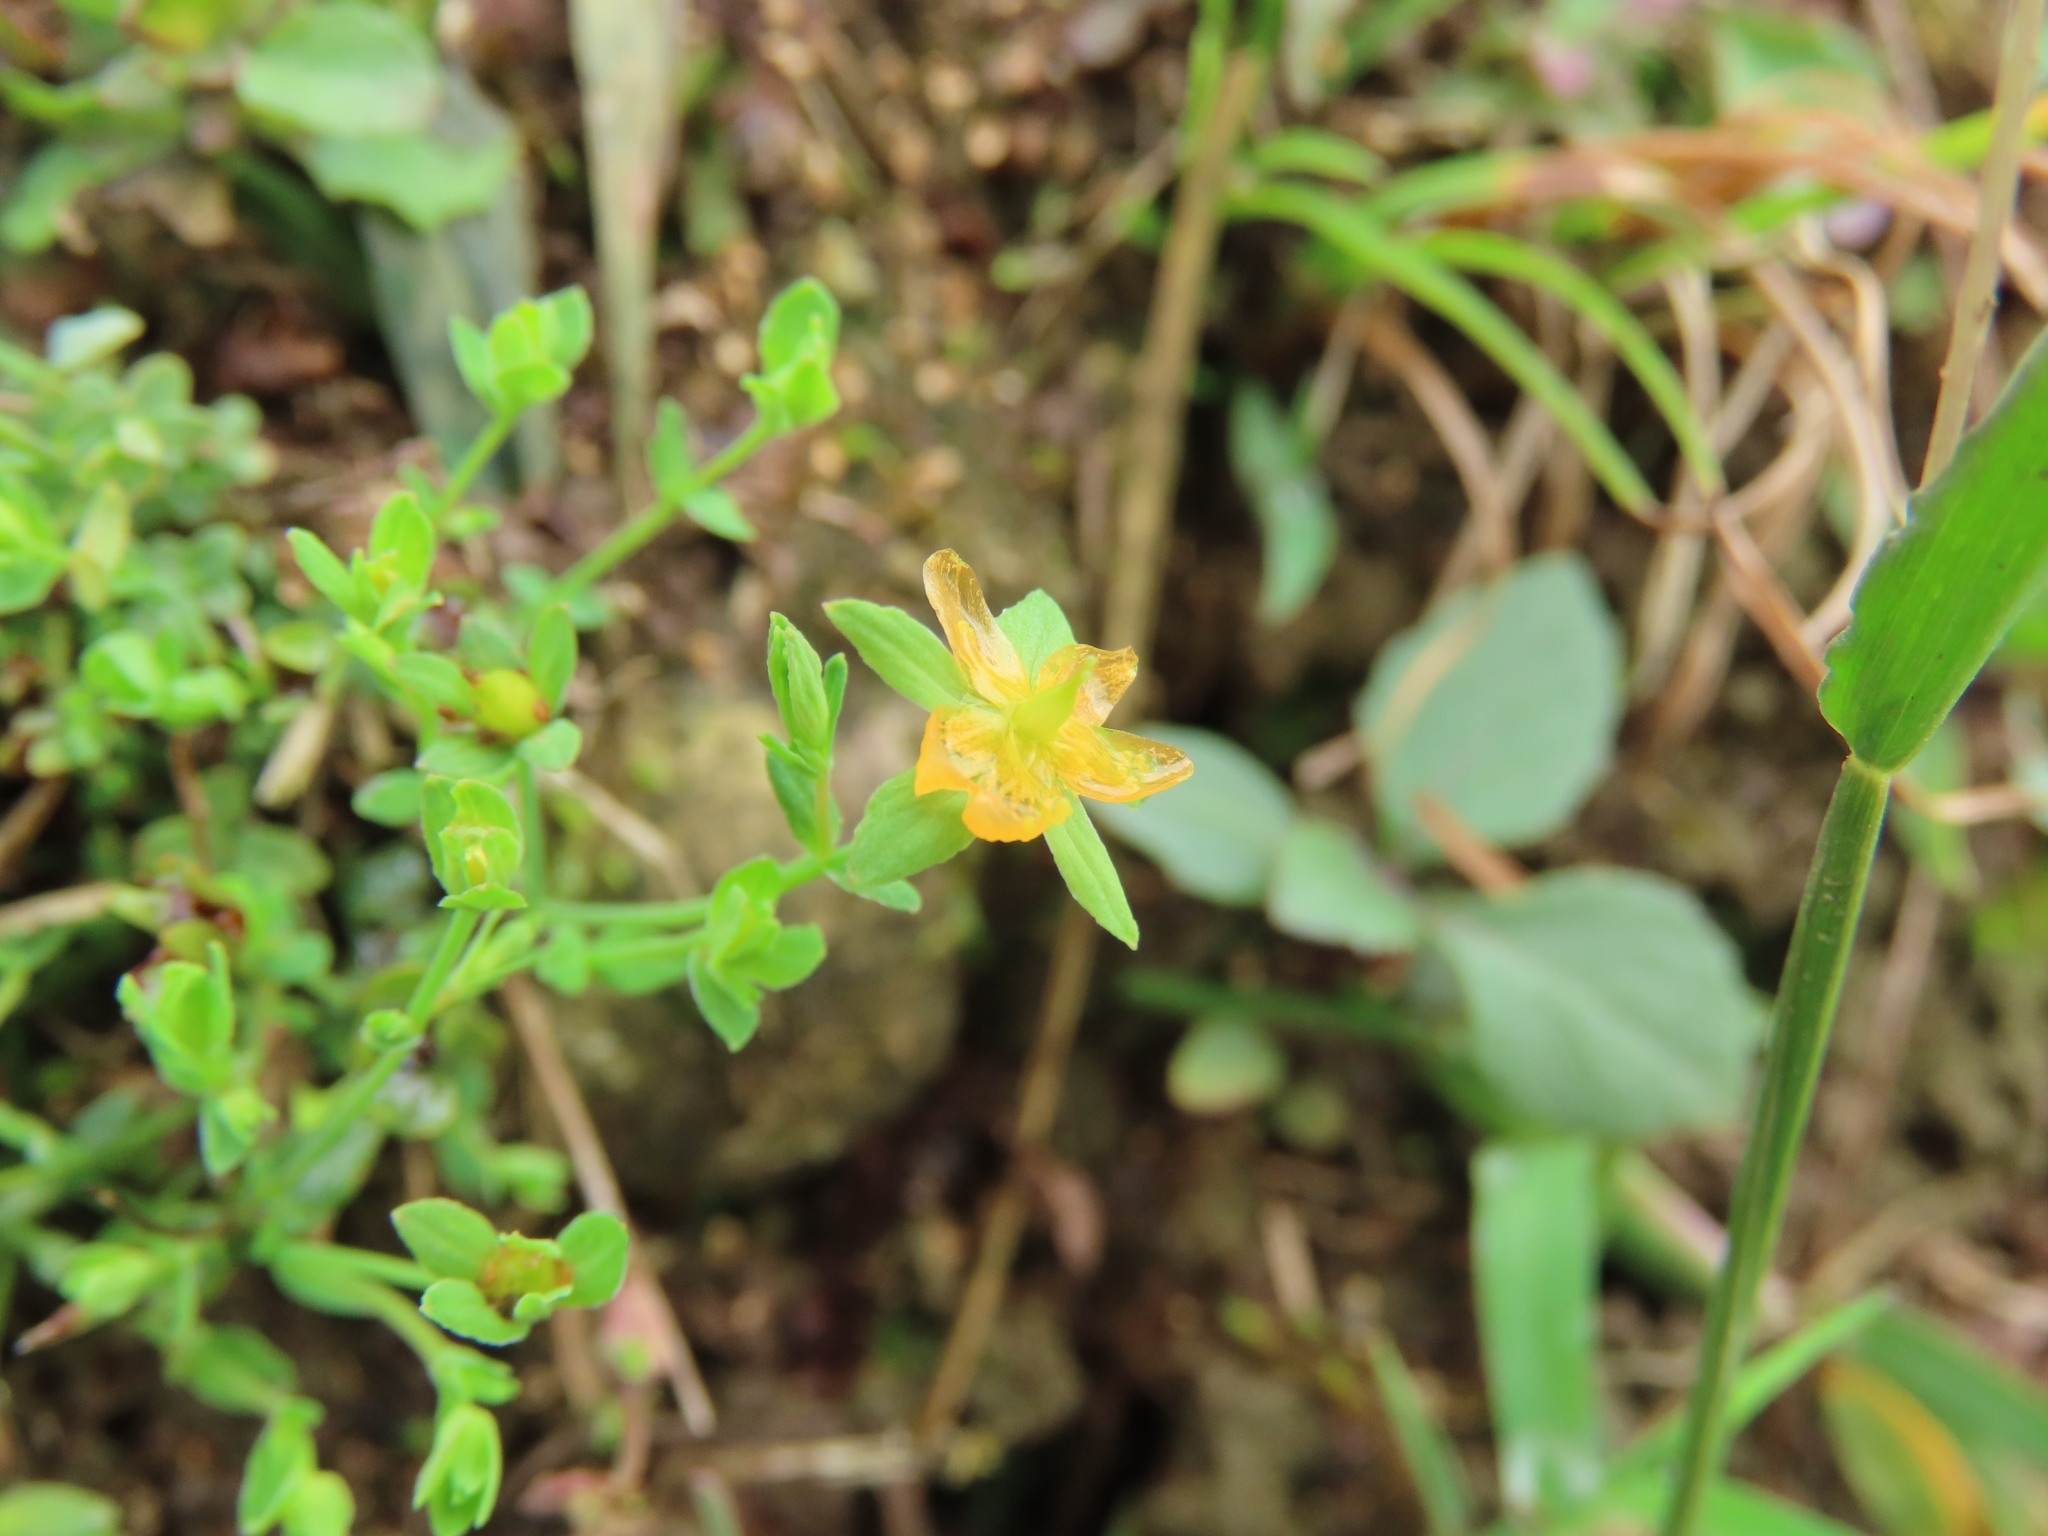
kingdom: Plantae
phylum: Tracheophyta
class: Magnoliopsida
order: Malpighiales
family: Hypericaceae
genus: Hypericum
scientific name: Hypericum japonicum
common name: Matted st. john's-wort
